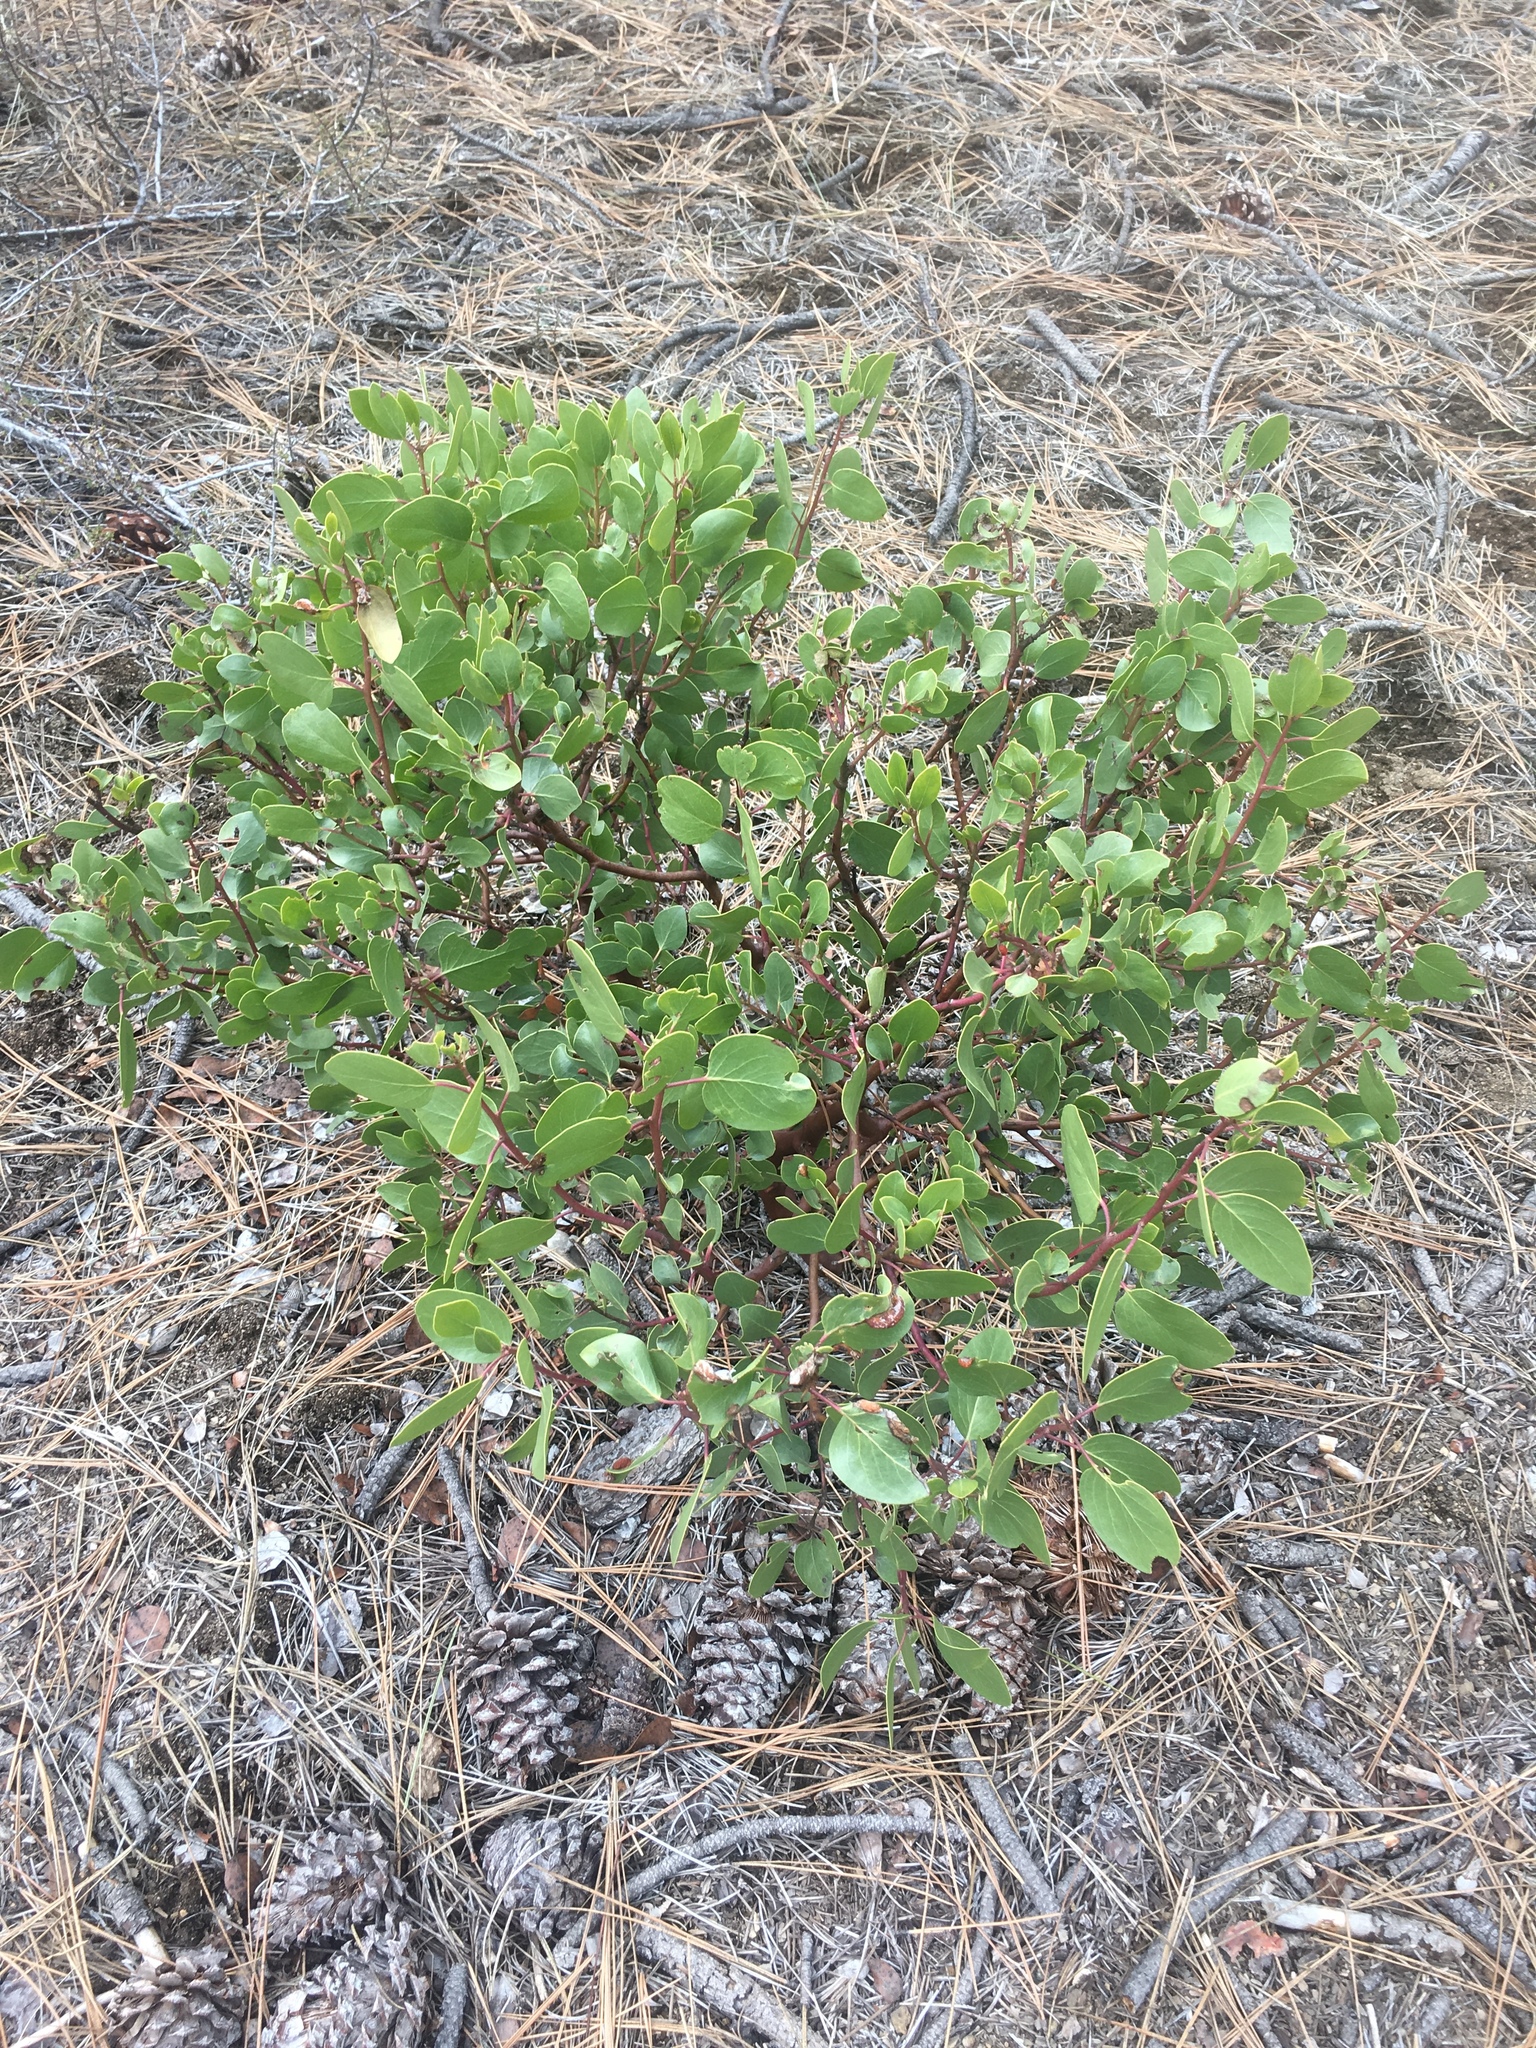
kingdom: Plantae
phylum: Tracheophyta
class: Magnoliopsida
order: Ericales
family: Ericaceae
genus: Arctostaphylos
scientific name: Arctostaphylos patula
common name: Green-leaf manzanita
